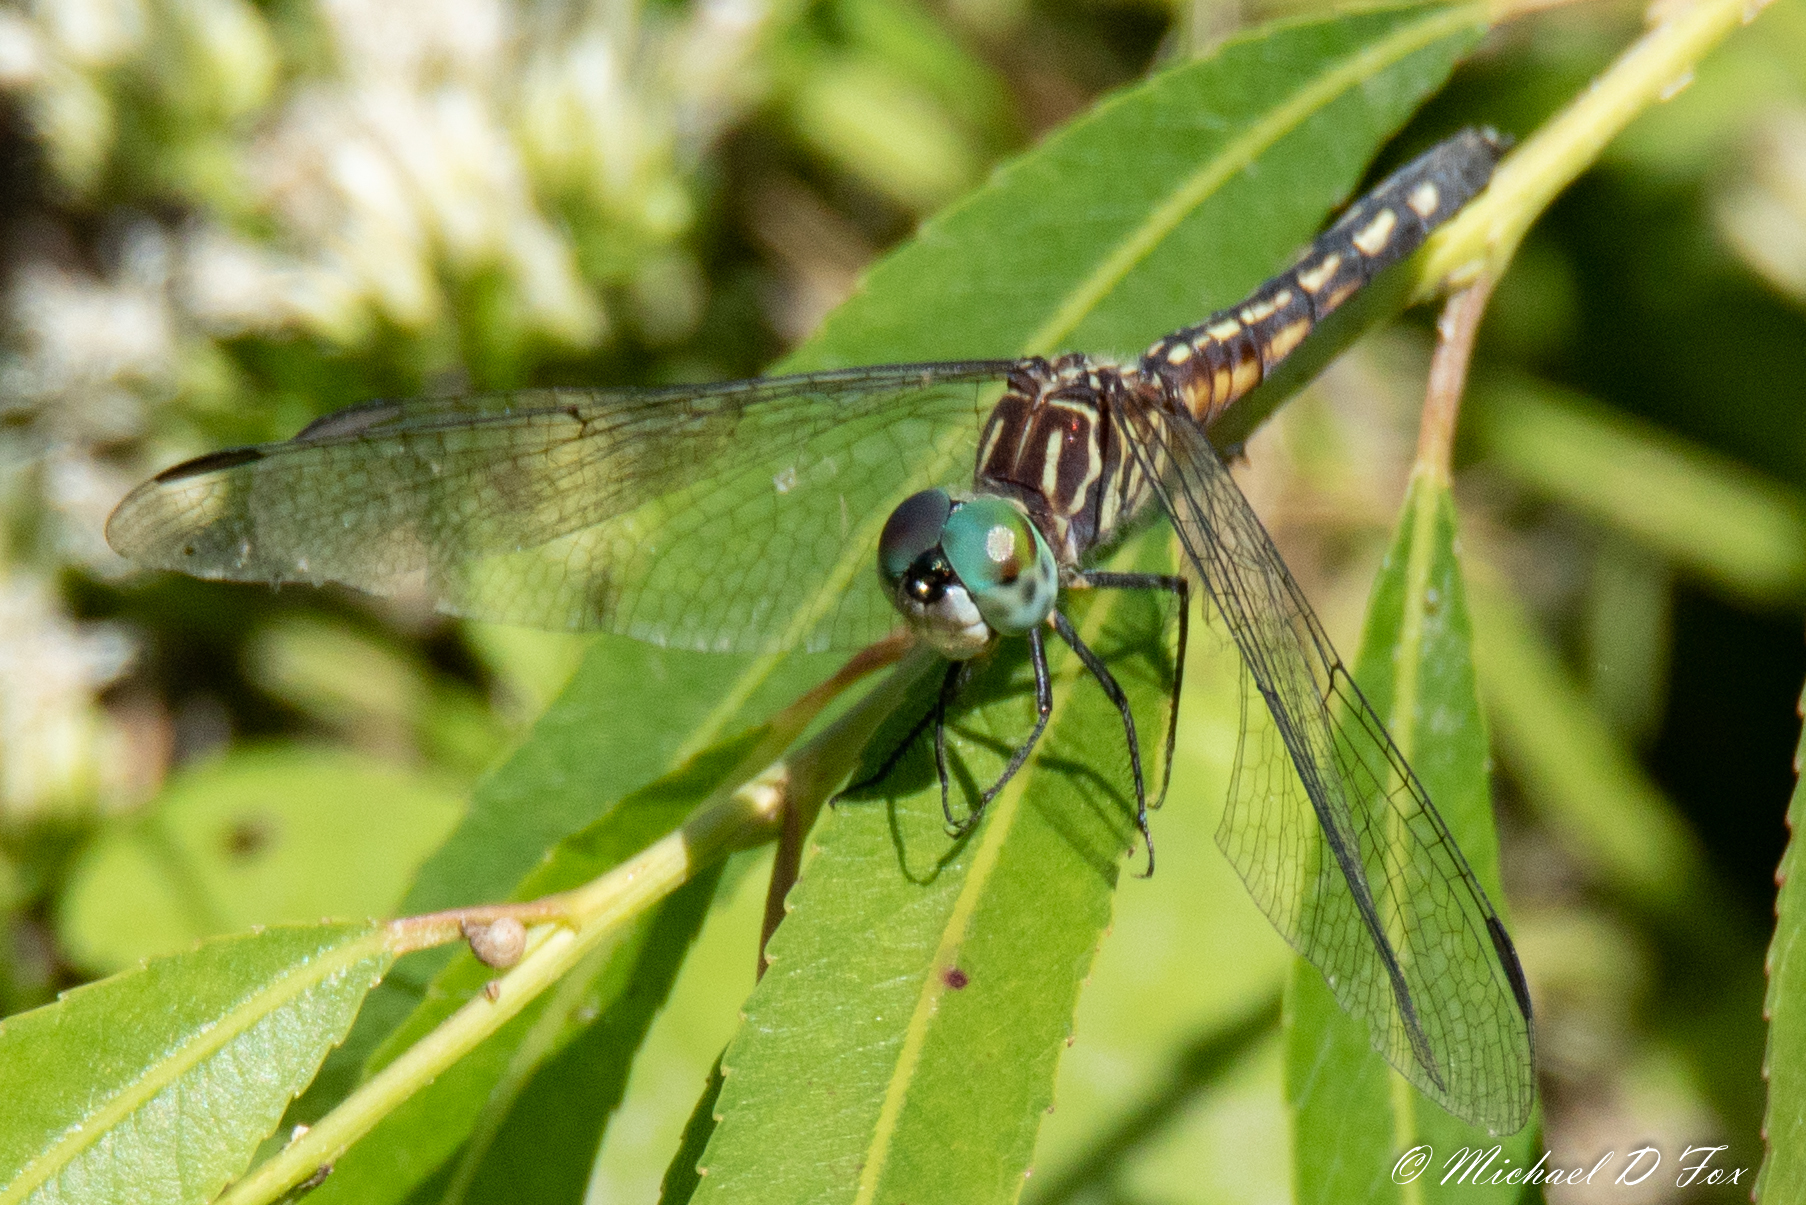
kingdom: Animalia
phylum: Arthropoda
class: Insecta
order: Odonata
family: Libellulidae
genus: Pachydiplax
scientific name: Pachydiplax longipennis
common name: Blue dasher
